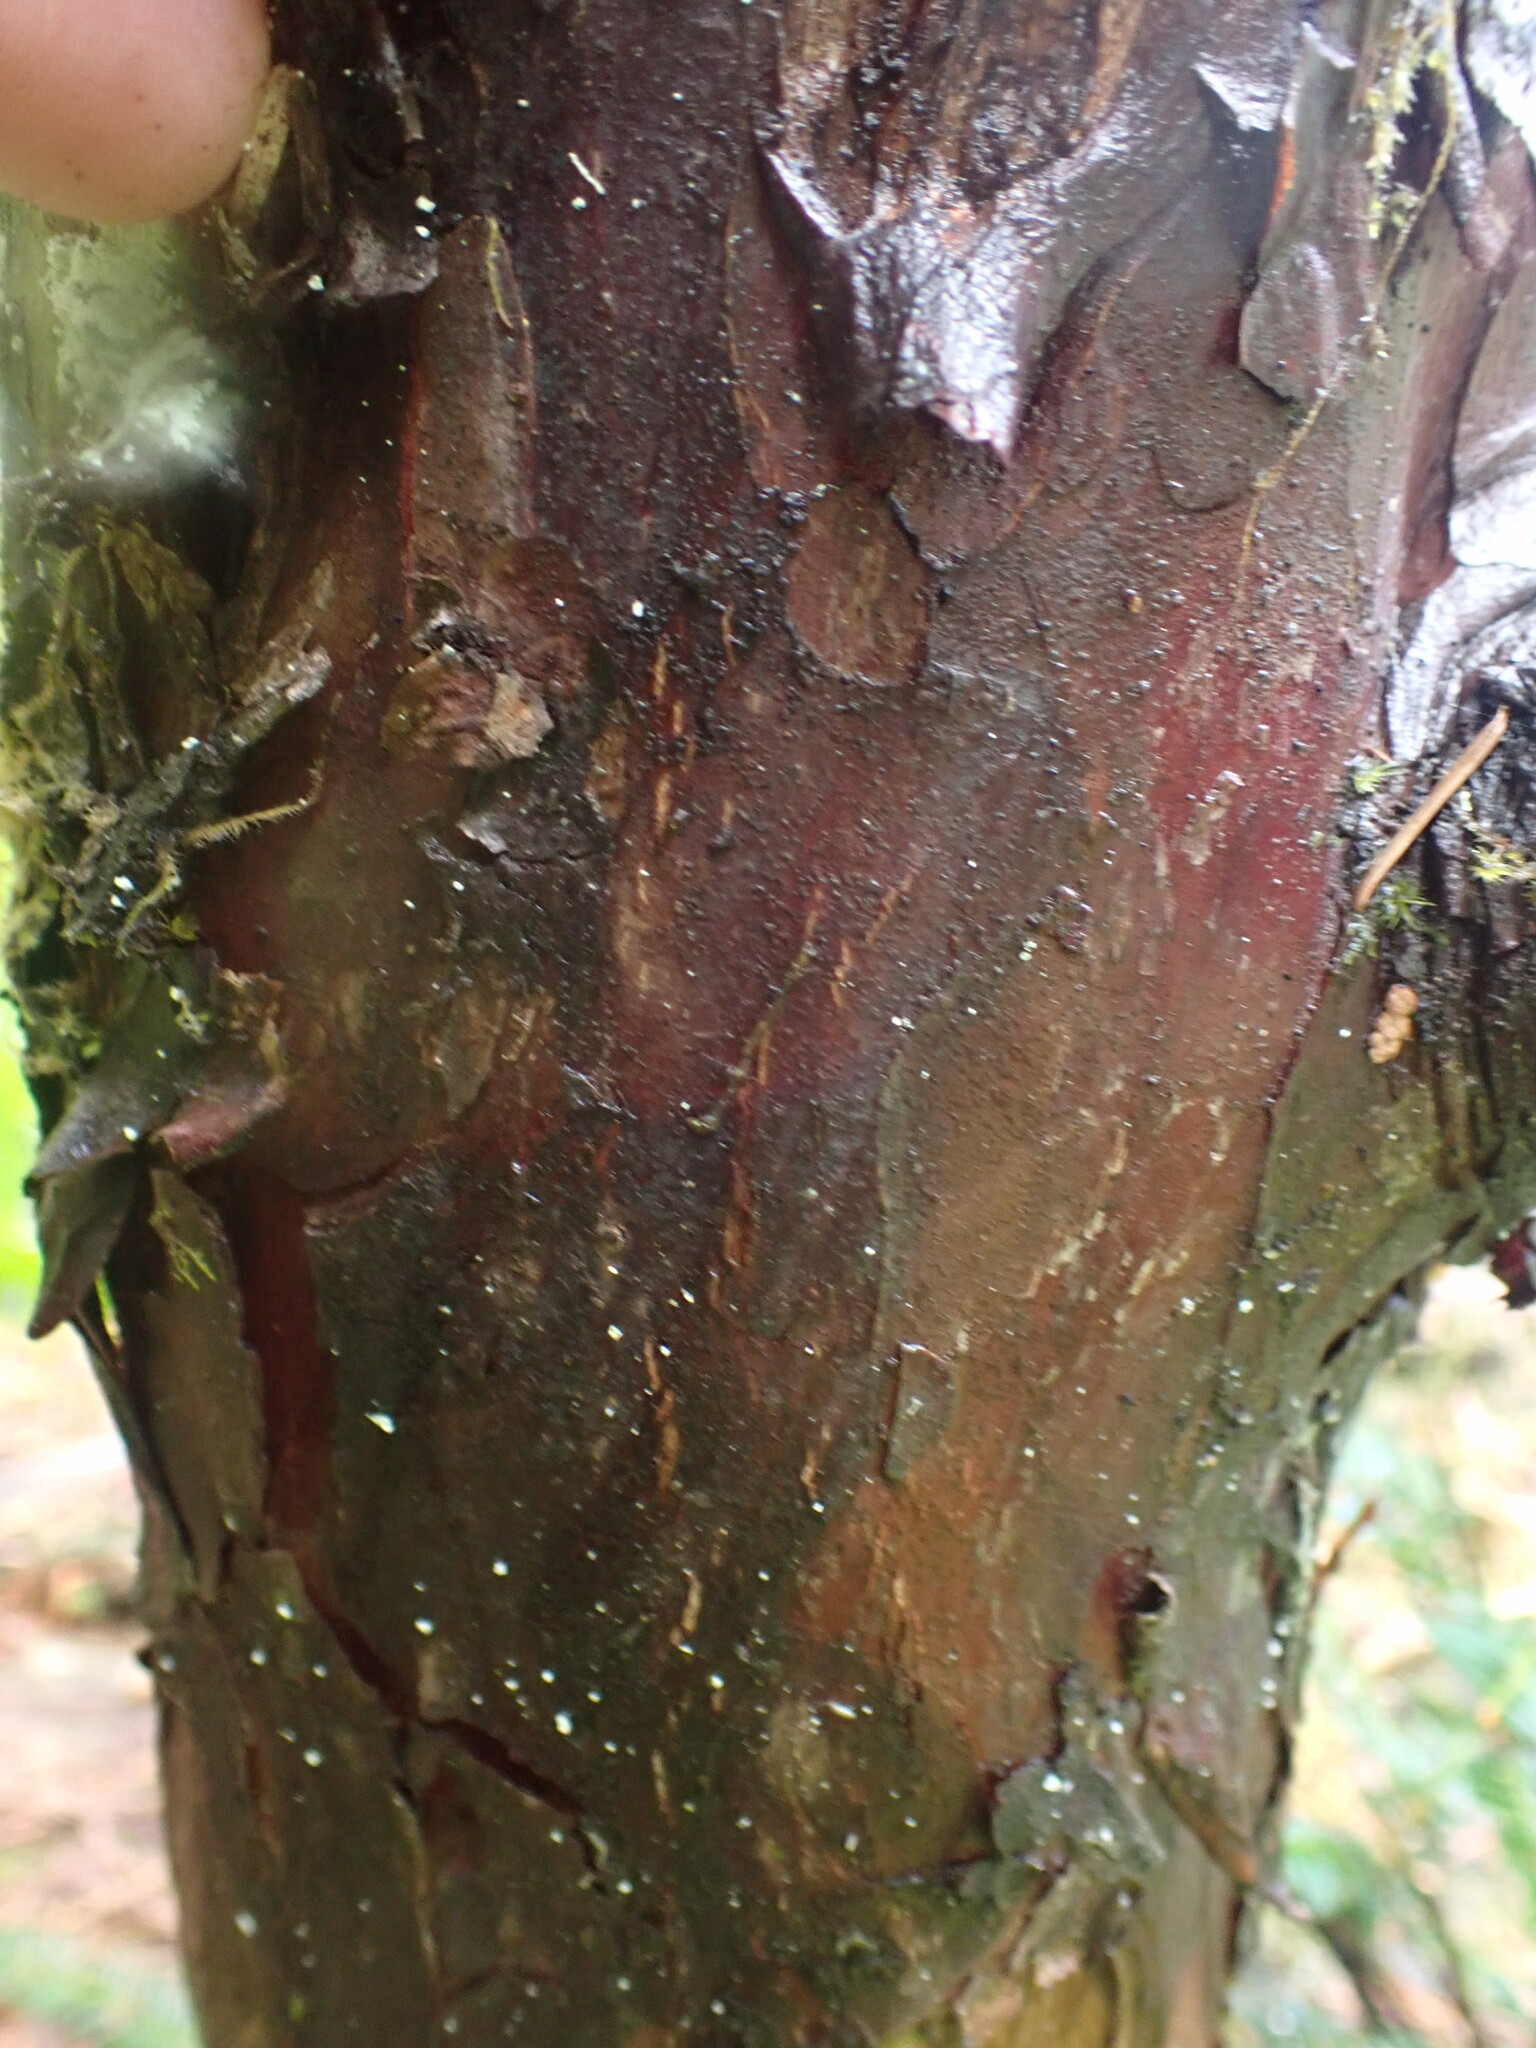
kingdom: Plantae
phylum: Tracheophyta
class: Pinopsida
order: Pinales
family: Taxaceae
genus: Taxus
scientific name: Taxus brevifolia
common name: Pacific yew
